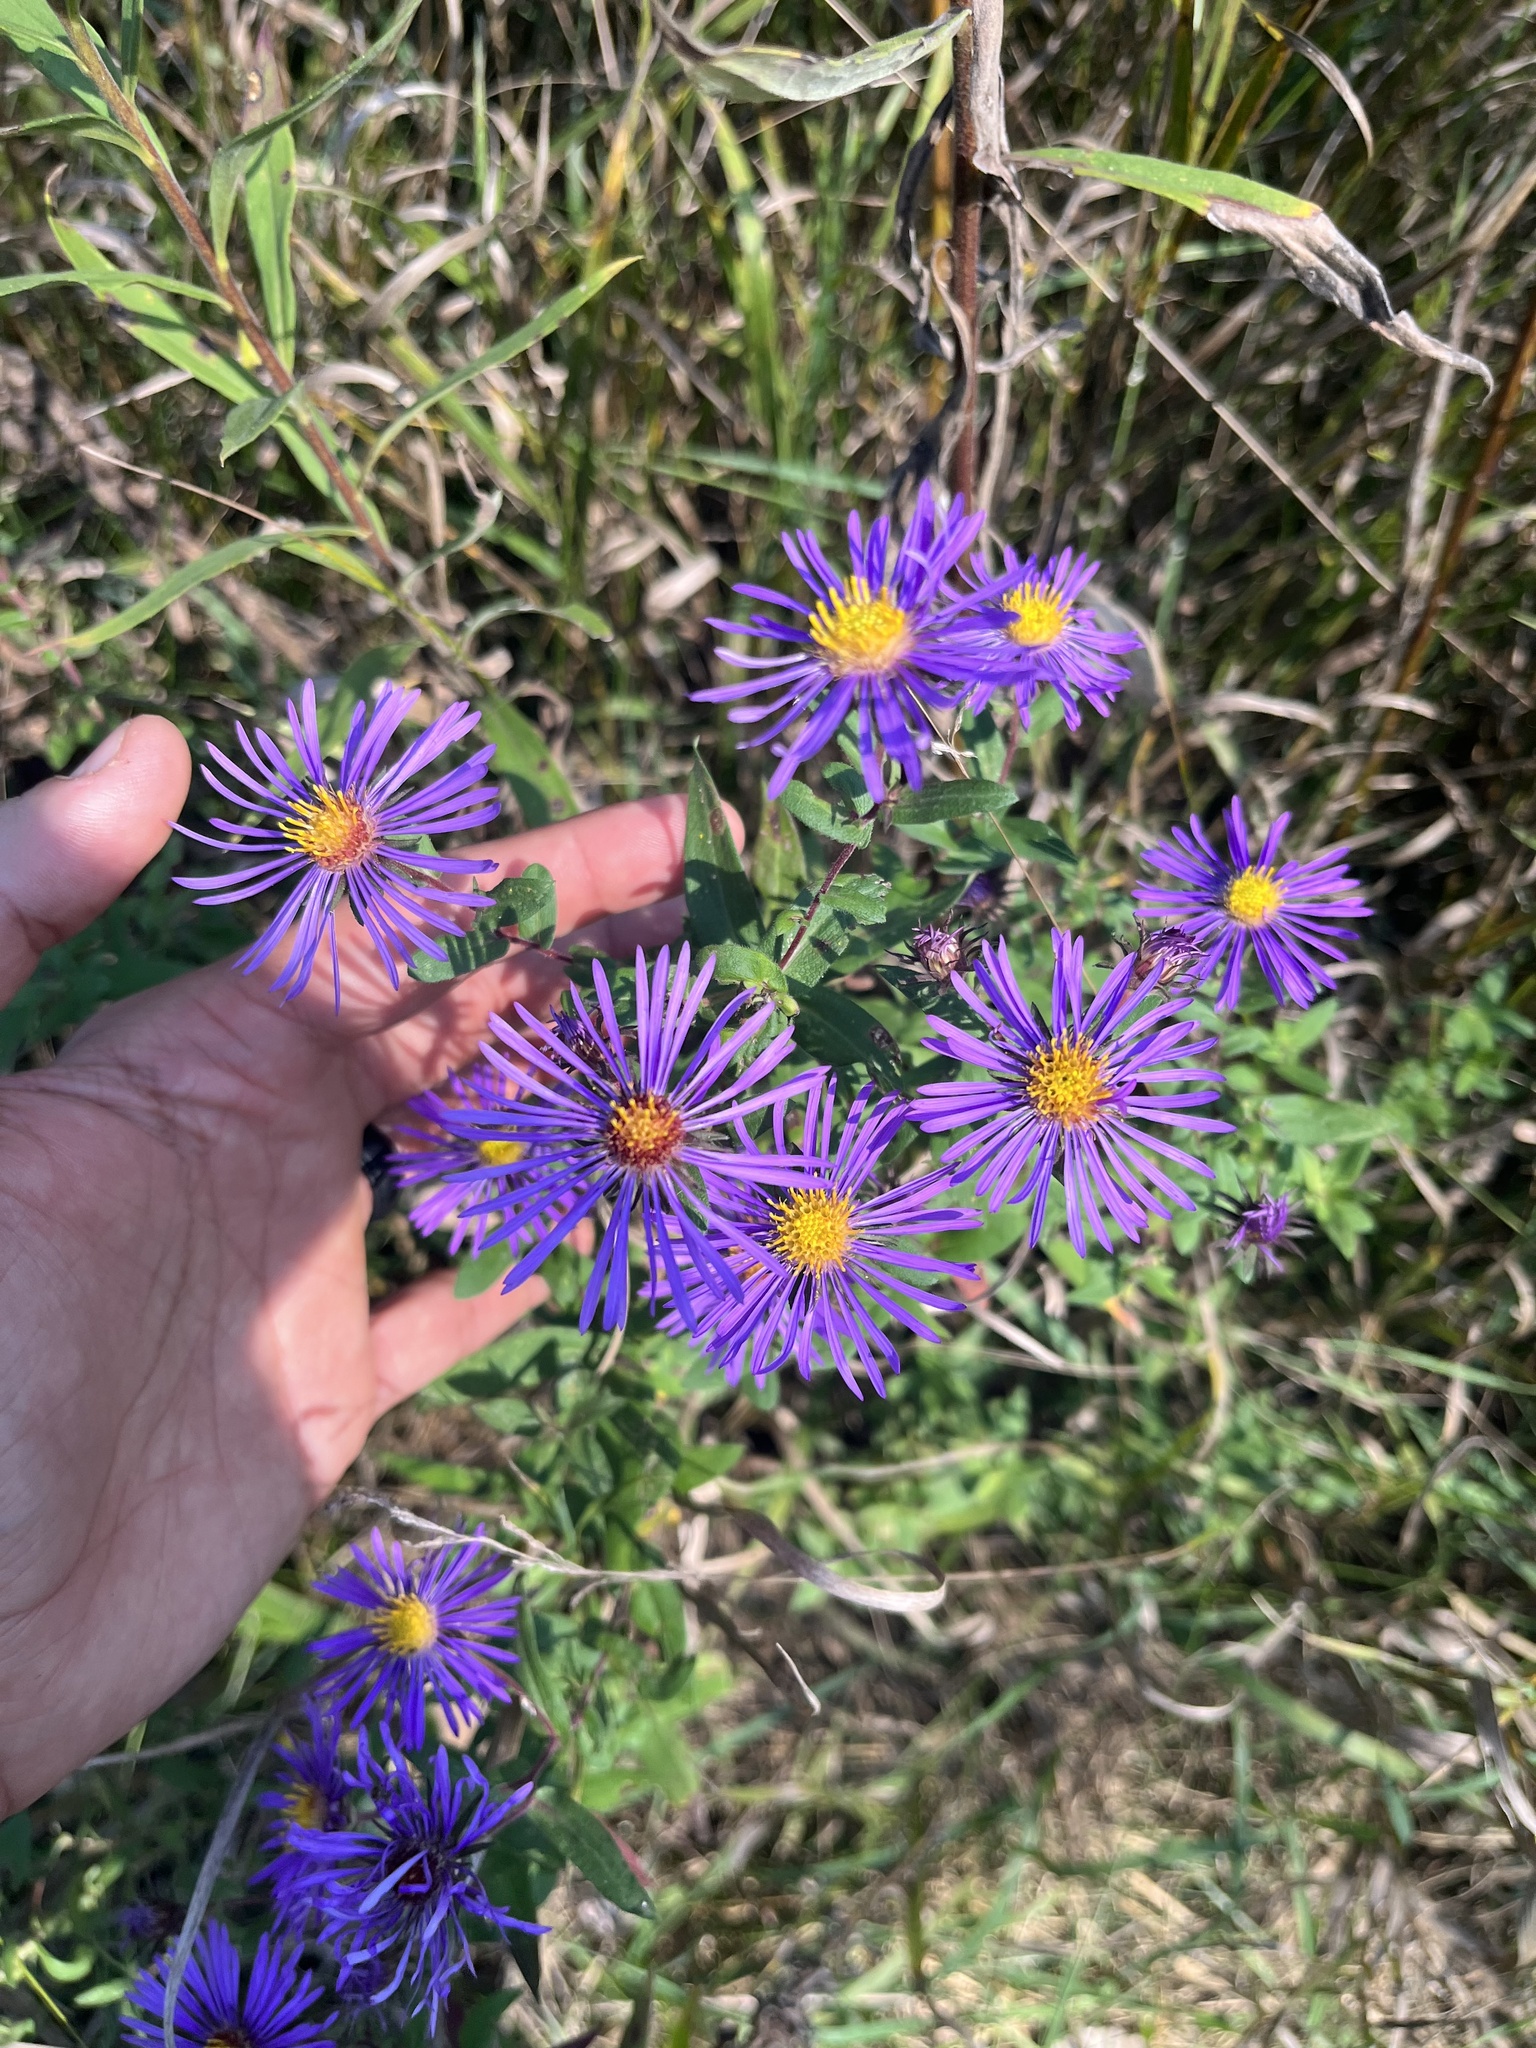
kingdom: Plantae
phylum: Tracheophyta
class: Magnoliopsida
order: Asterales
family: Asteraceae
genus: Symphyotrichum
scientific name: Symphyotrichum novae-angliae
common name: Michaelmas daisy
